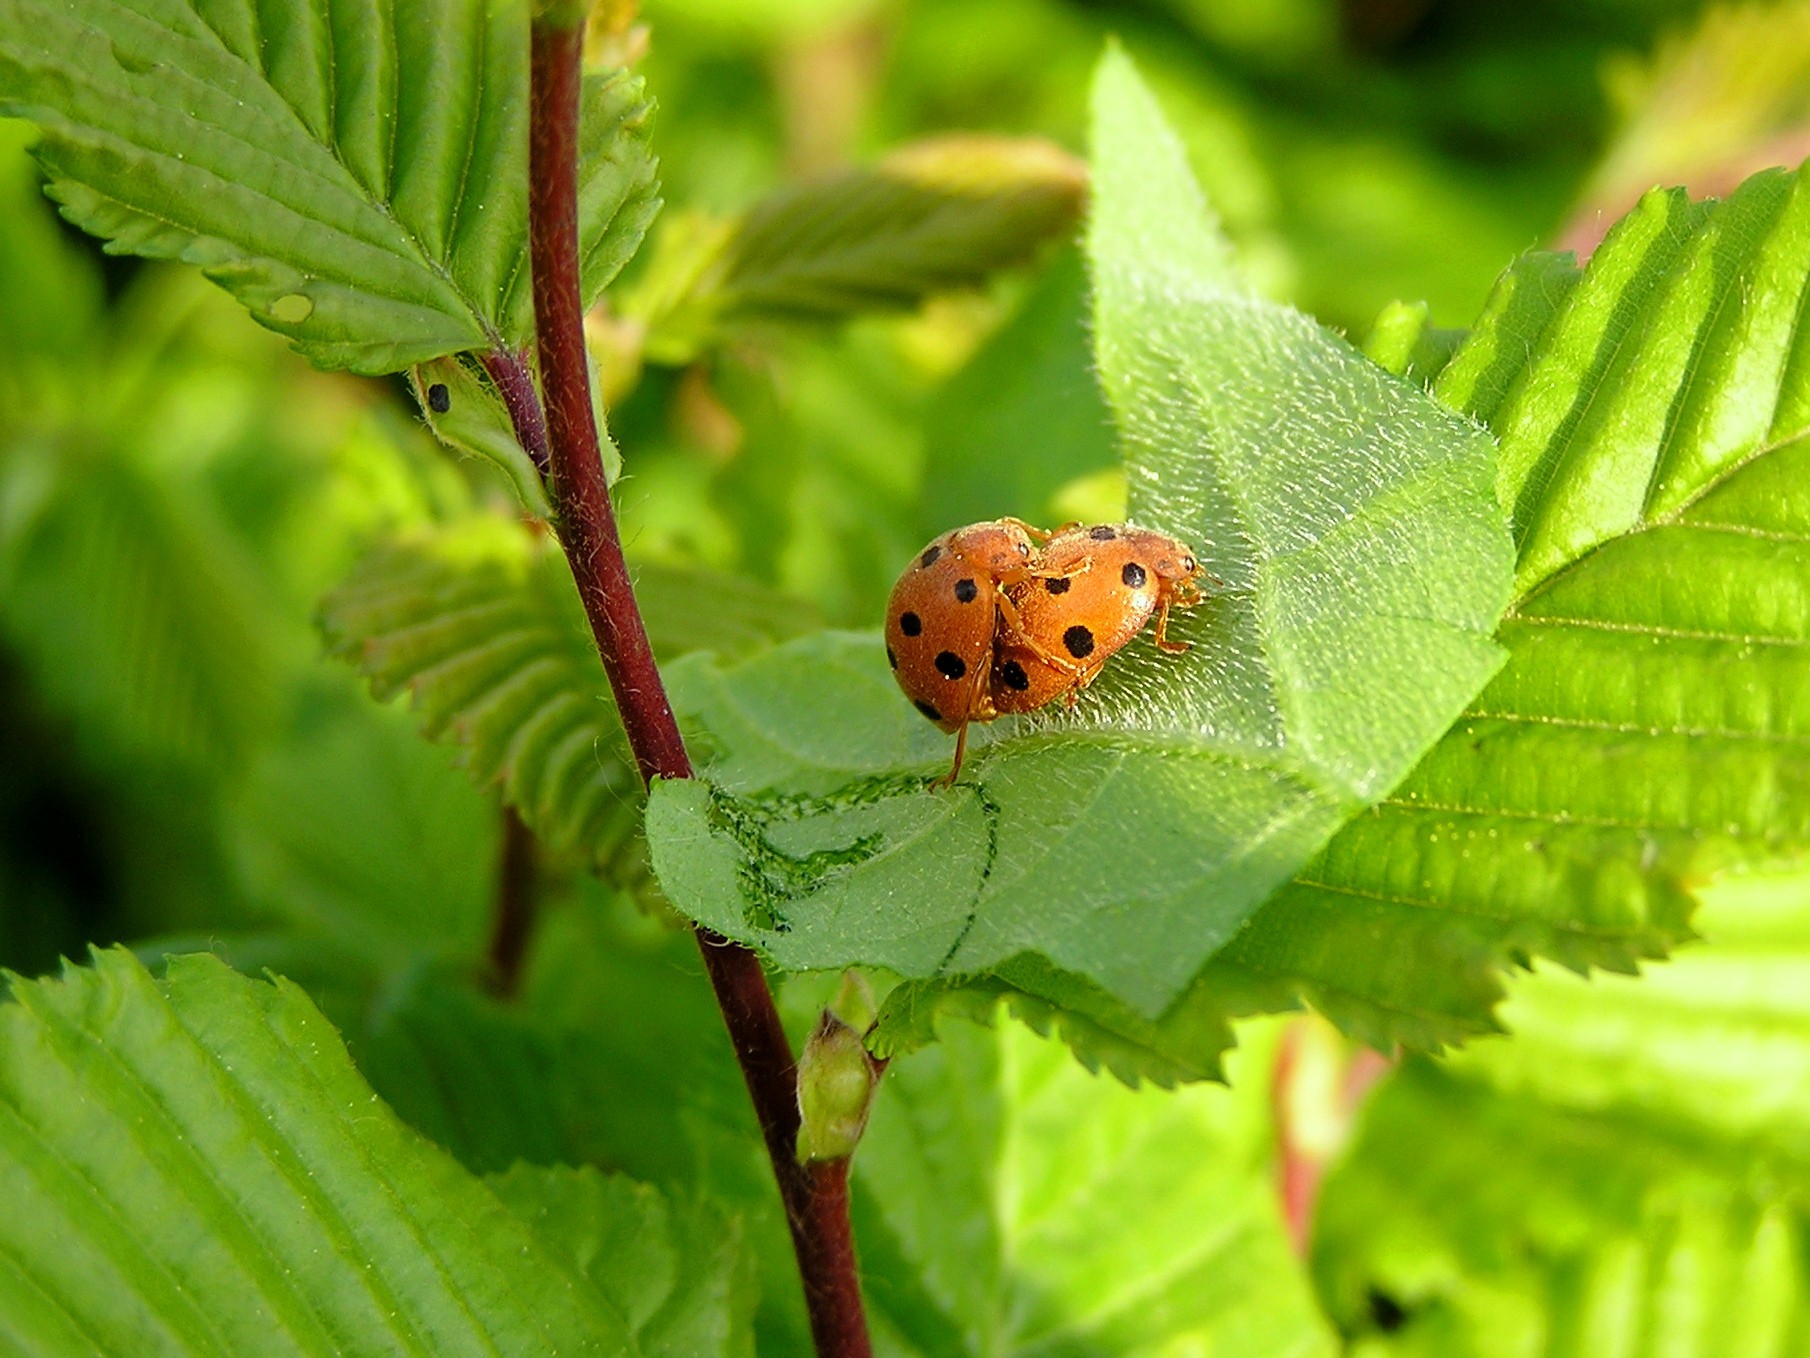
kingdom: Animalia
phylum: Arthropoda
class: Insecta
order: Coleoptera
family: Coccinellidae
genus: Henosepilachna
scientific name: Henosepilachna argus
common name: Bryony ladybird
